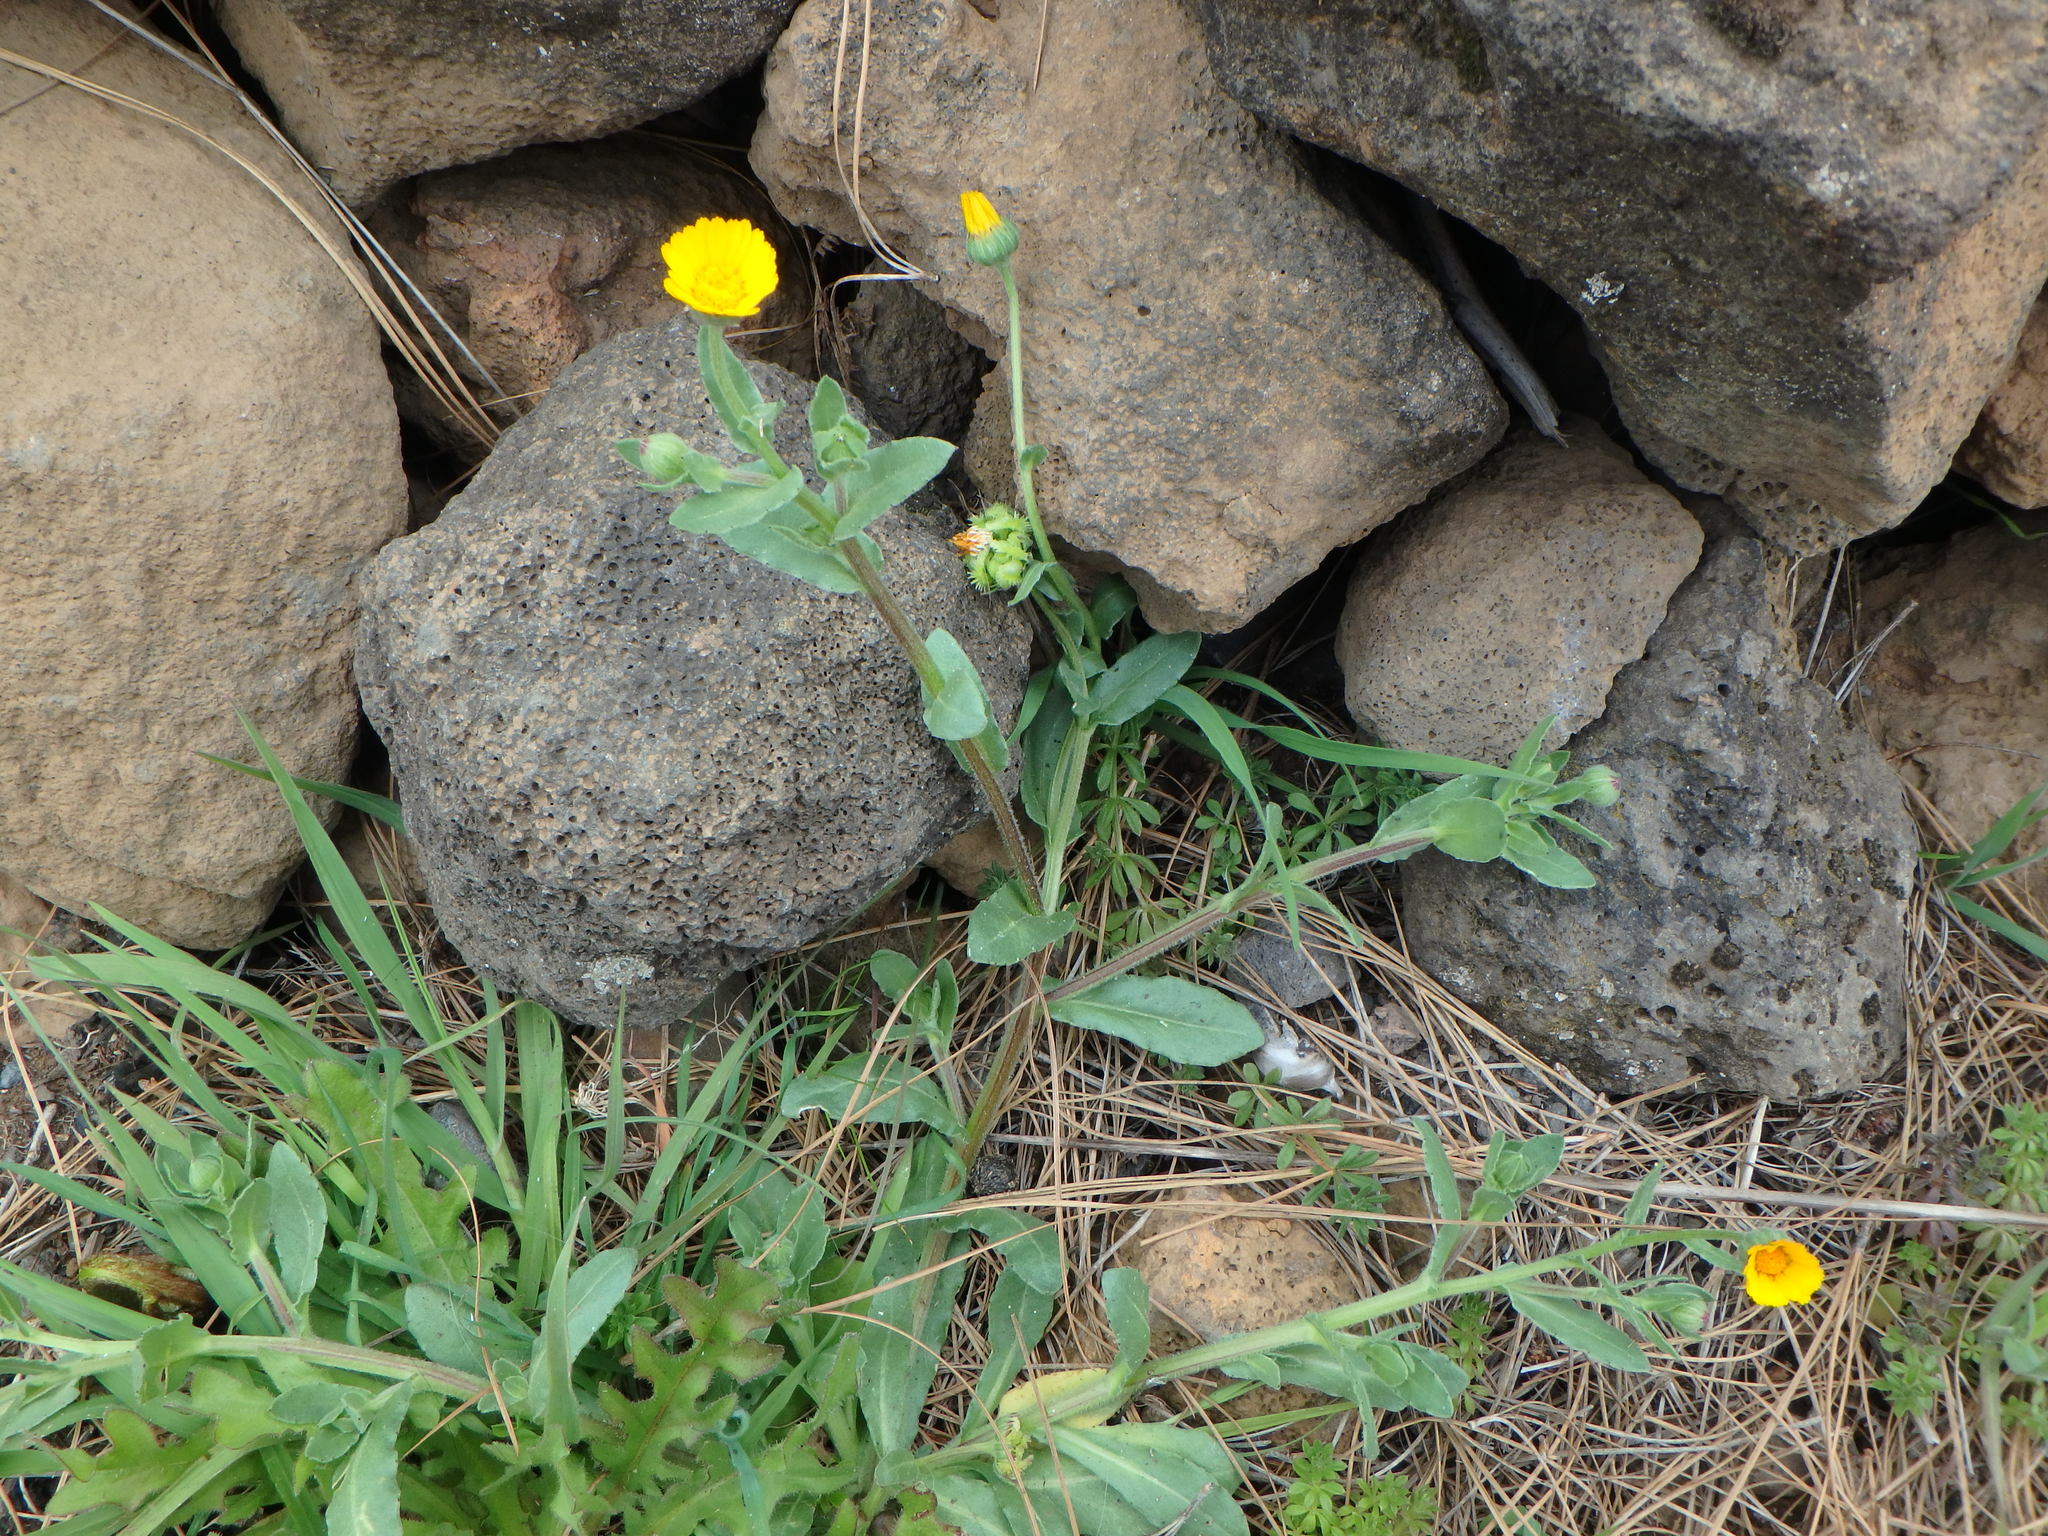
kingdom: Plantae
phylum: Tracheophyta
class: Magnoliopsida
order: Asterales
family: Asteraceae
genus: Calendula
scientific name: Calendula arvensis
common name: Field marigold
